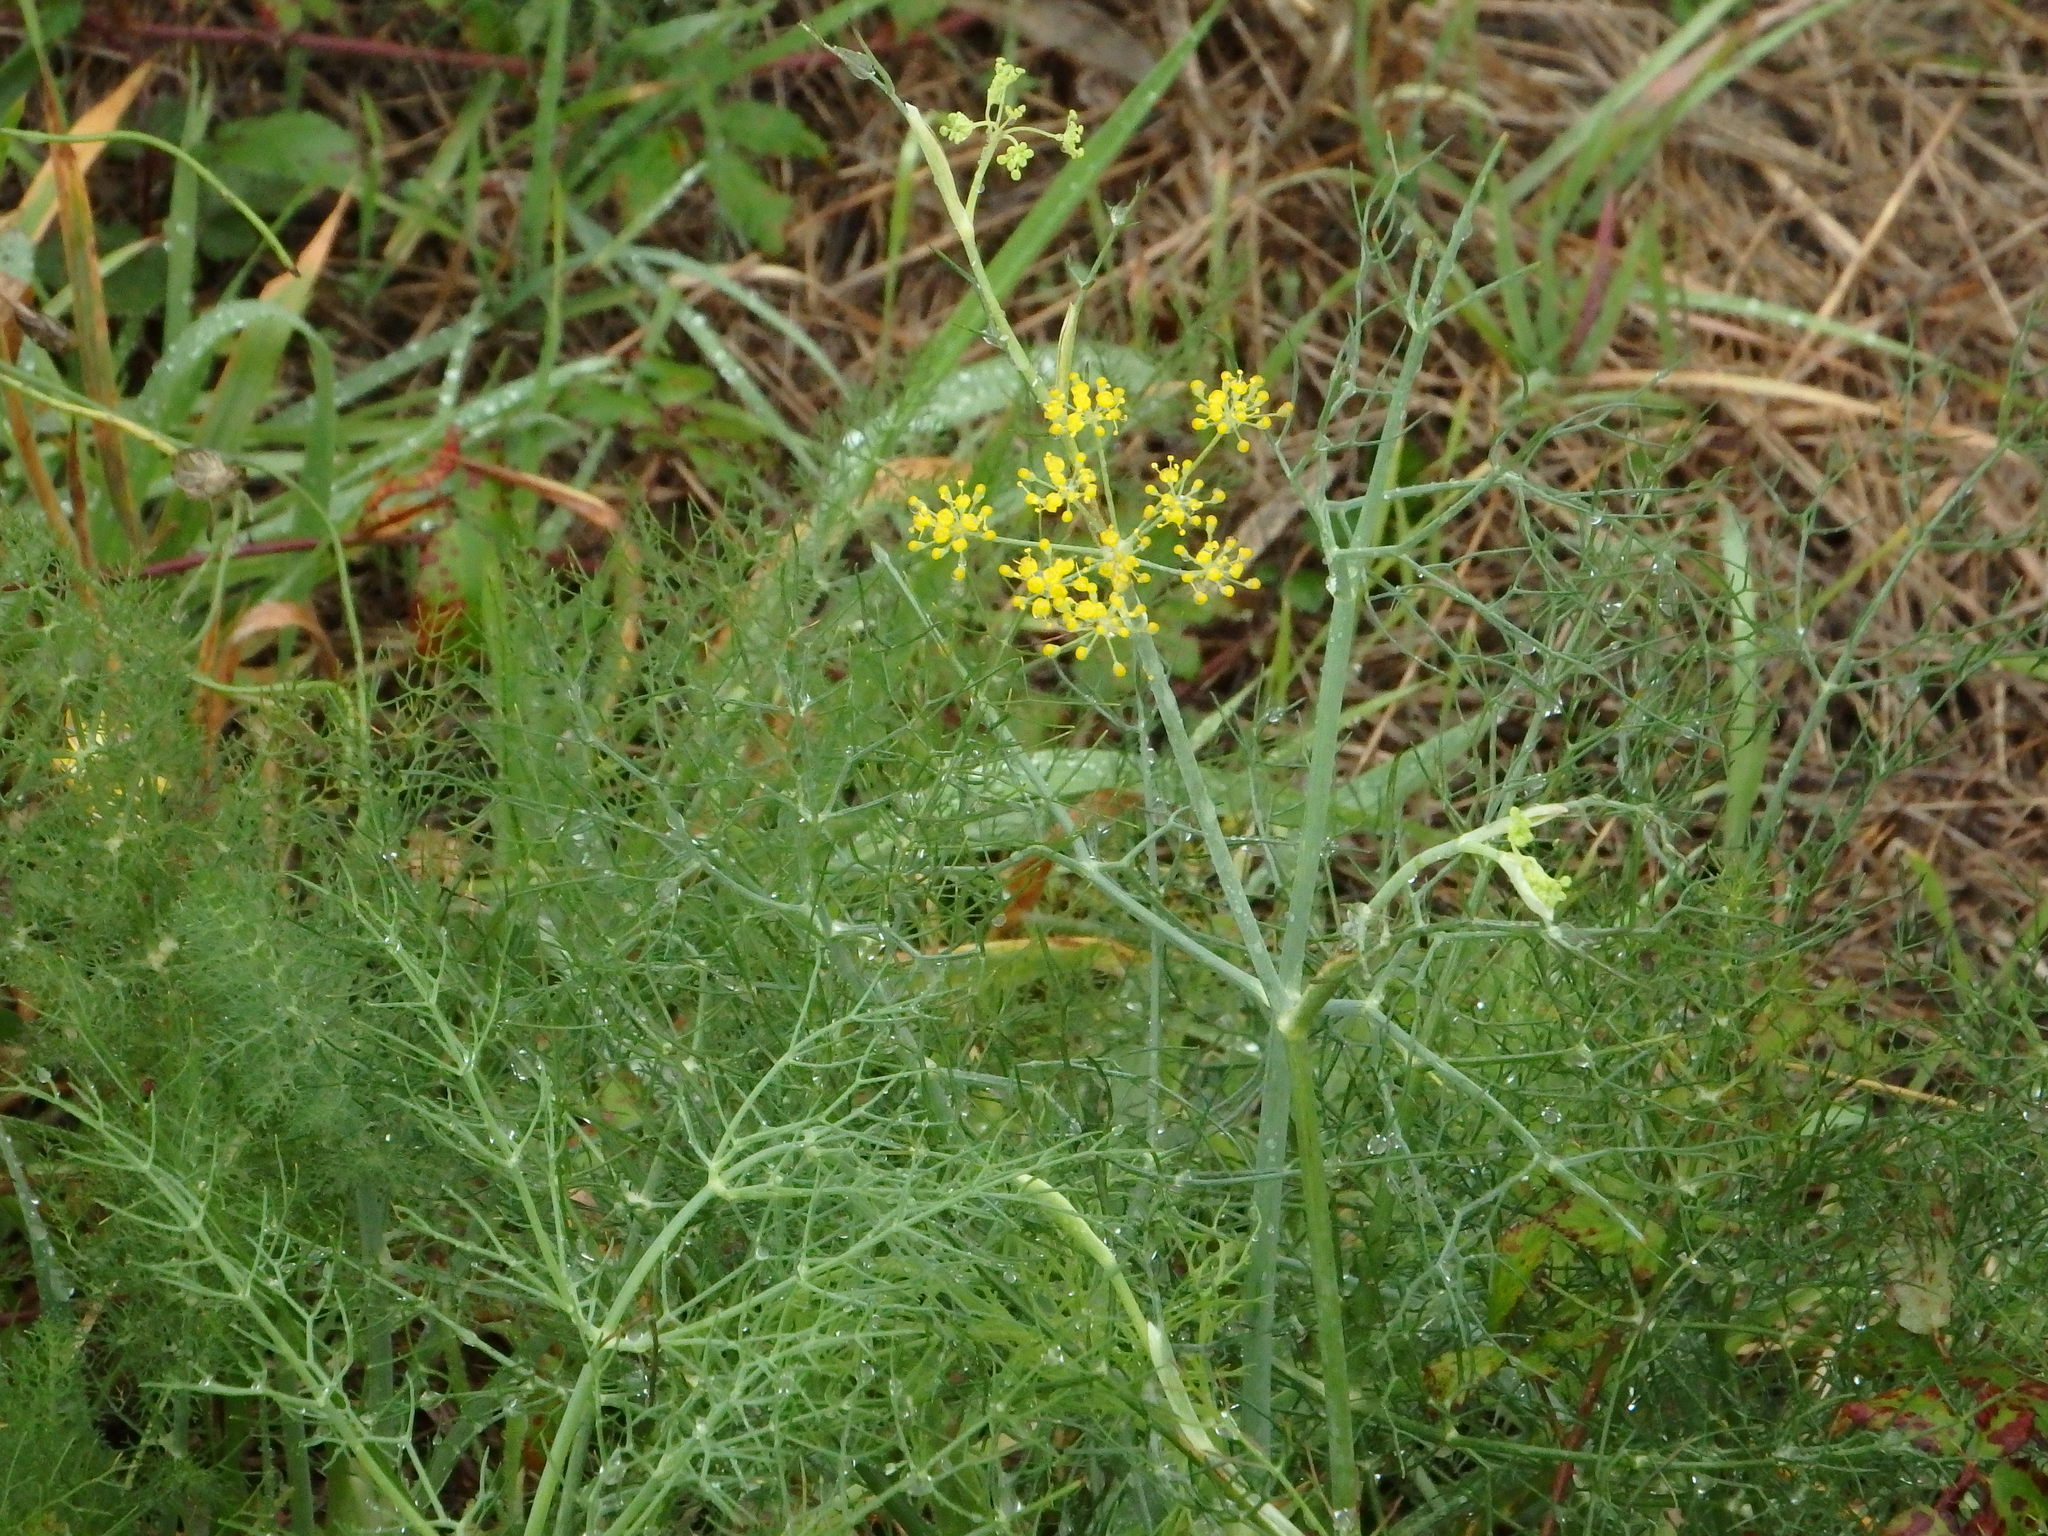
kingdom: Plantae
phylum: Tracheophyta
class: Magnoliopsida
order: Apiales
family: Apiaceae
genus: Foeniculum
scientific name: Foeniculum vulgare
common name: Fennel
